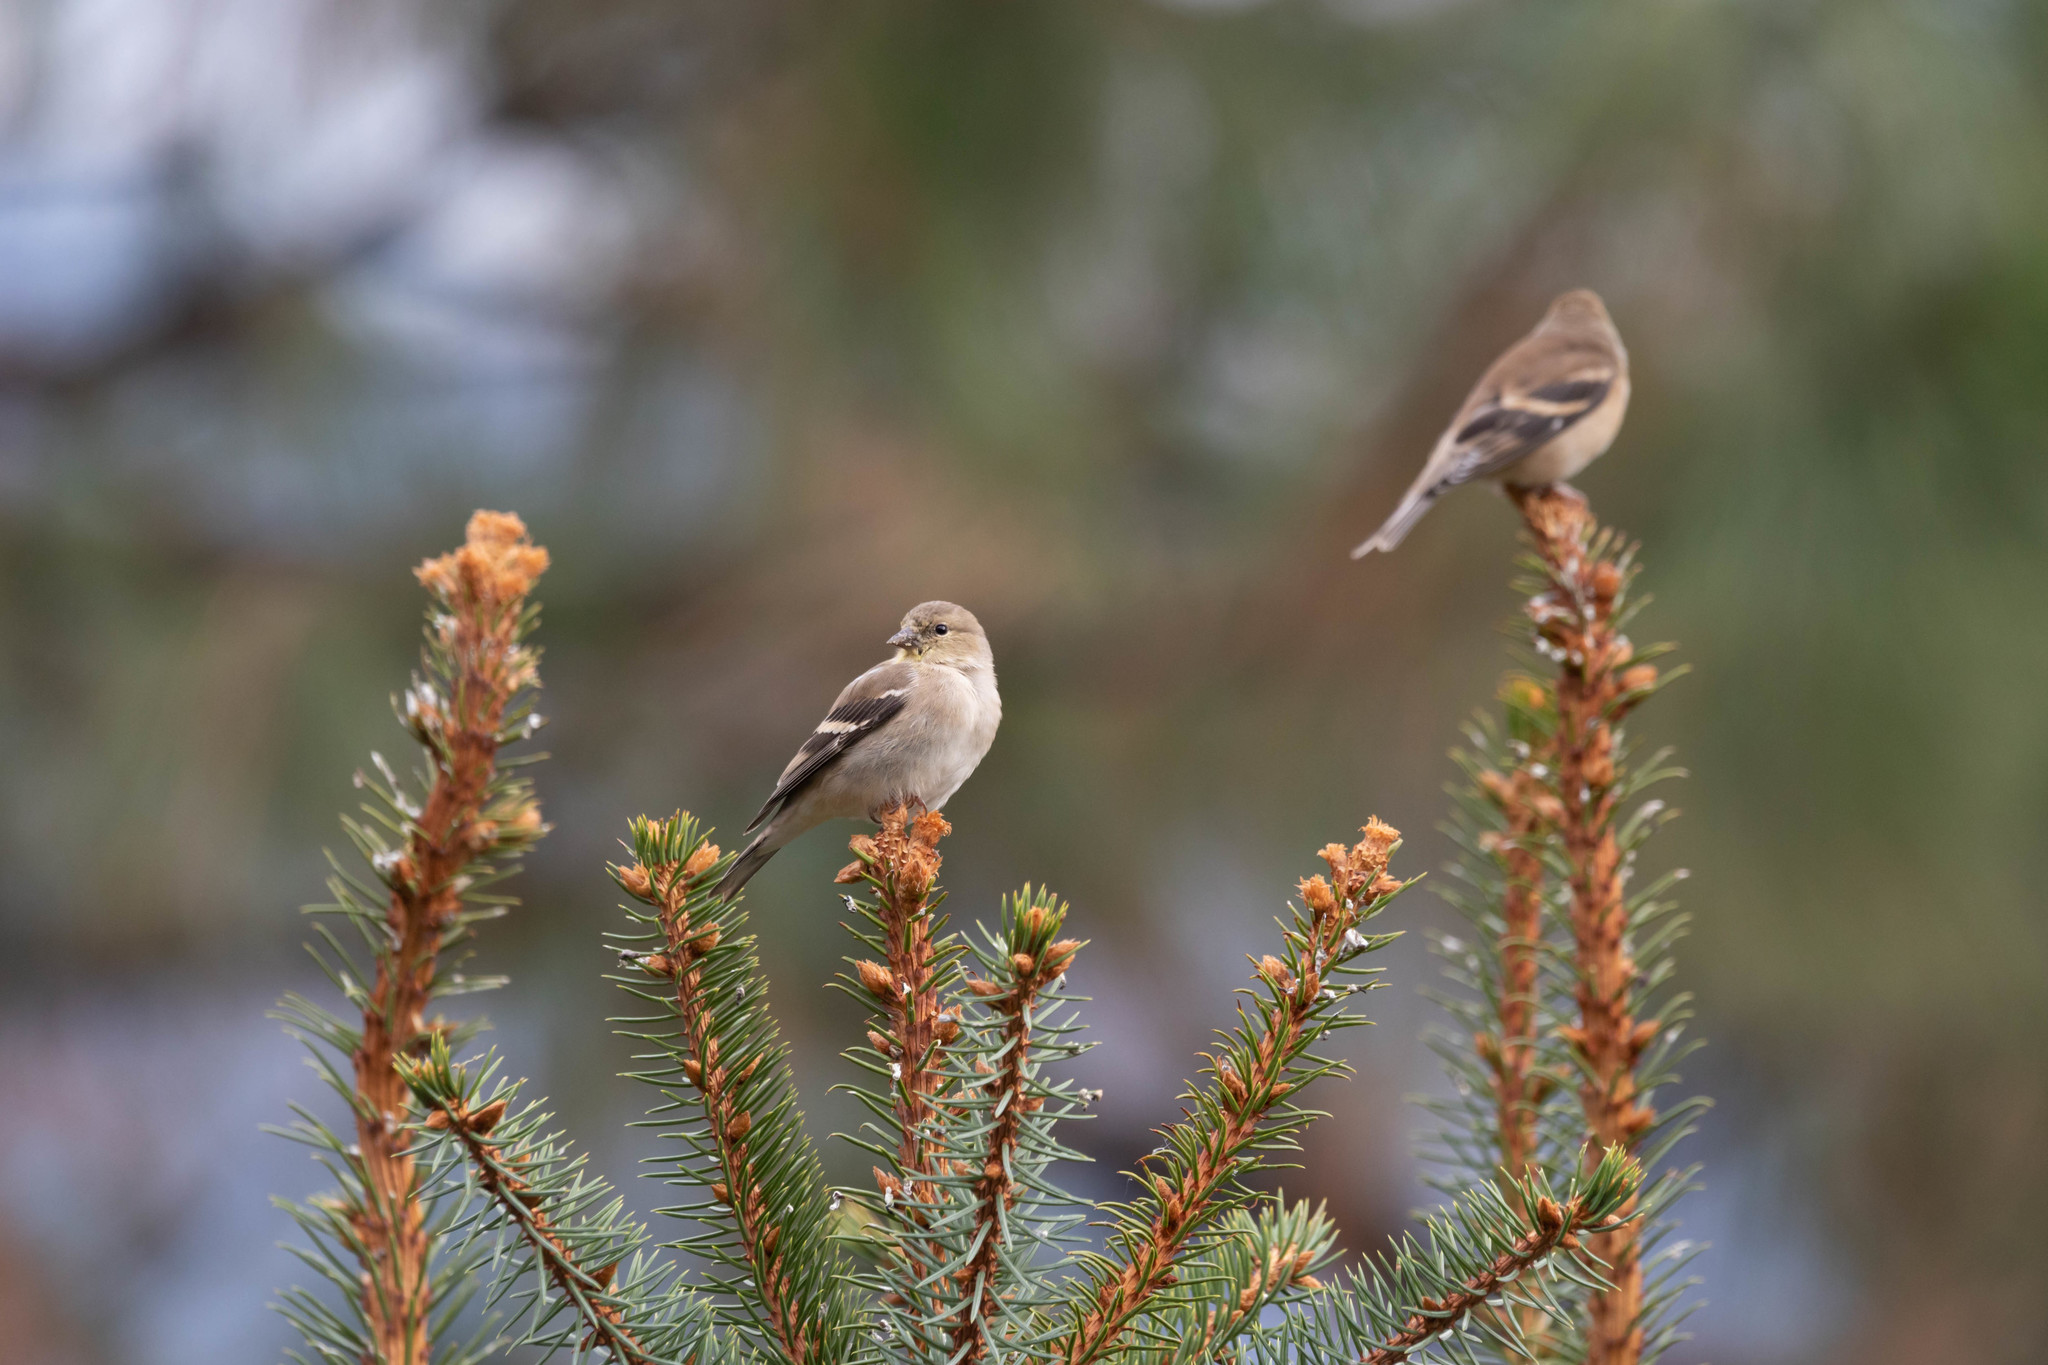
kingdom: Animalia
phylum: Chordata
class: Aves
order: Passeriformes
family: Fringillidae
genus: Spinus
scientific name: Spinus tristis
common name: American goldfinch
